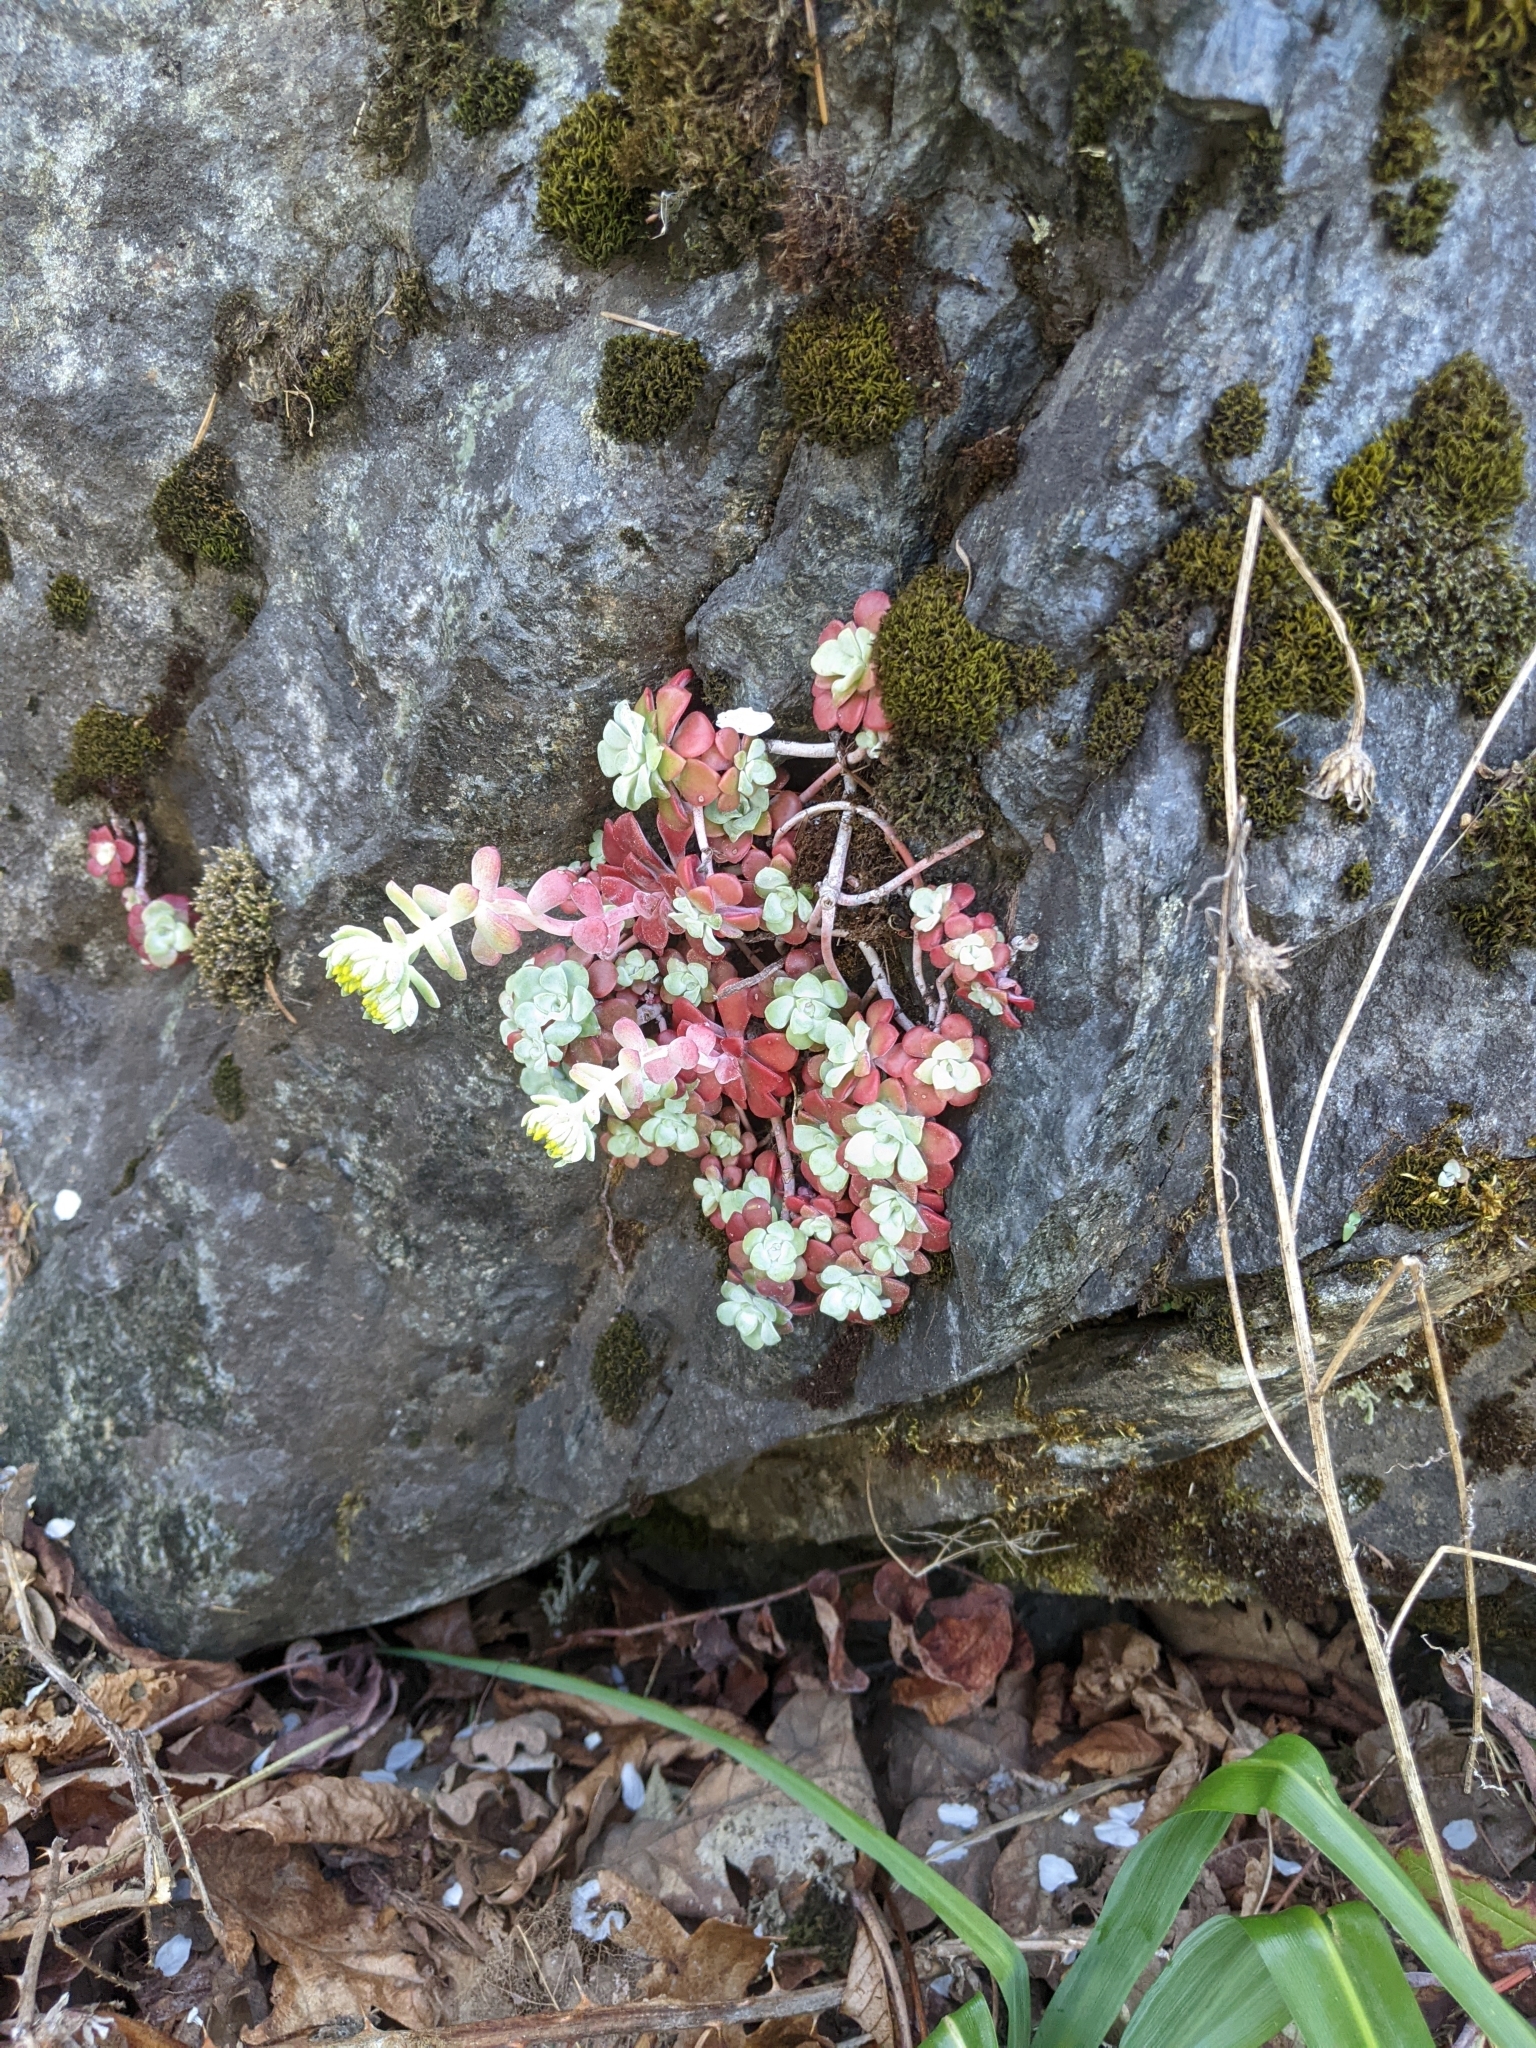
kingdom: Plantae
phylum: Tracheophyta
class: Magnoliopsida
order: Saxifragales
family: Crassulaceae
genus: Sedum
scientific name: Sedum spathulifolium
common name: Colorado stonecrop
